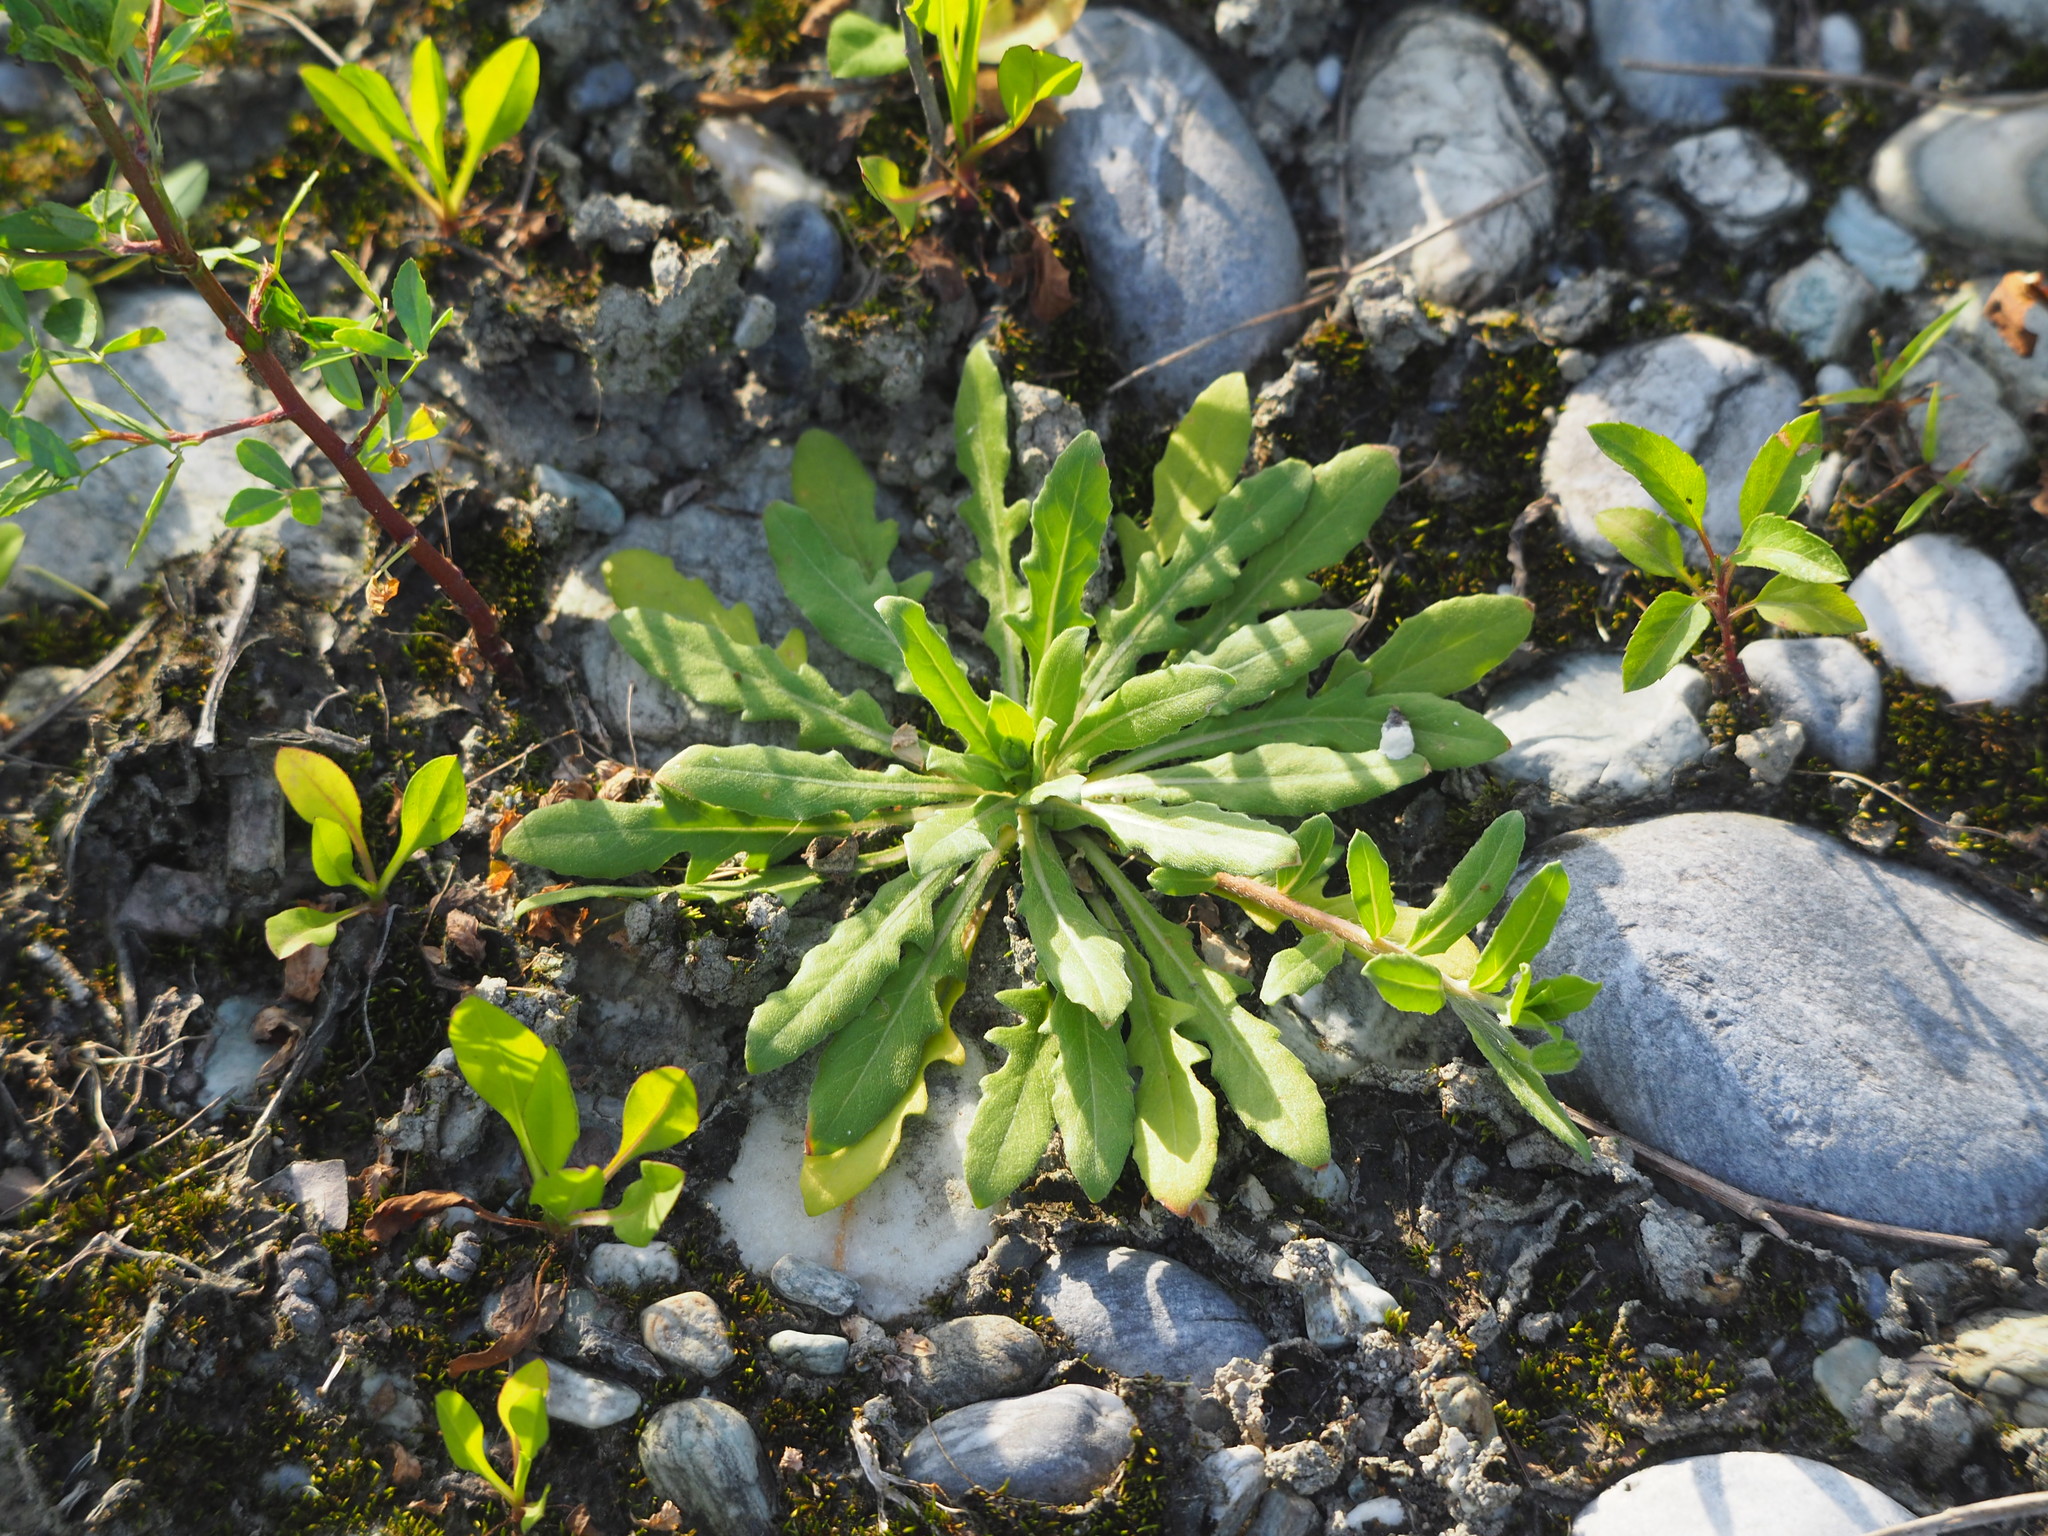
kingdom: Plantae
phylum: Tracheophyta
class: Magnoliopsida
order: Myrtales
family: Onagraceae
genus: Oenothera
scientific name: Oenothera laciniata
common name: Cut-leaved evening-primrose
